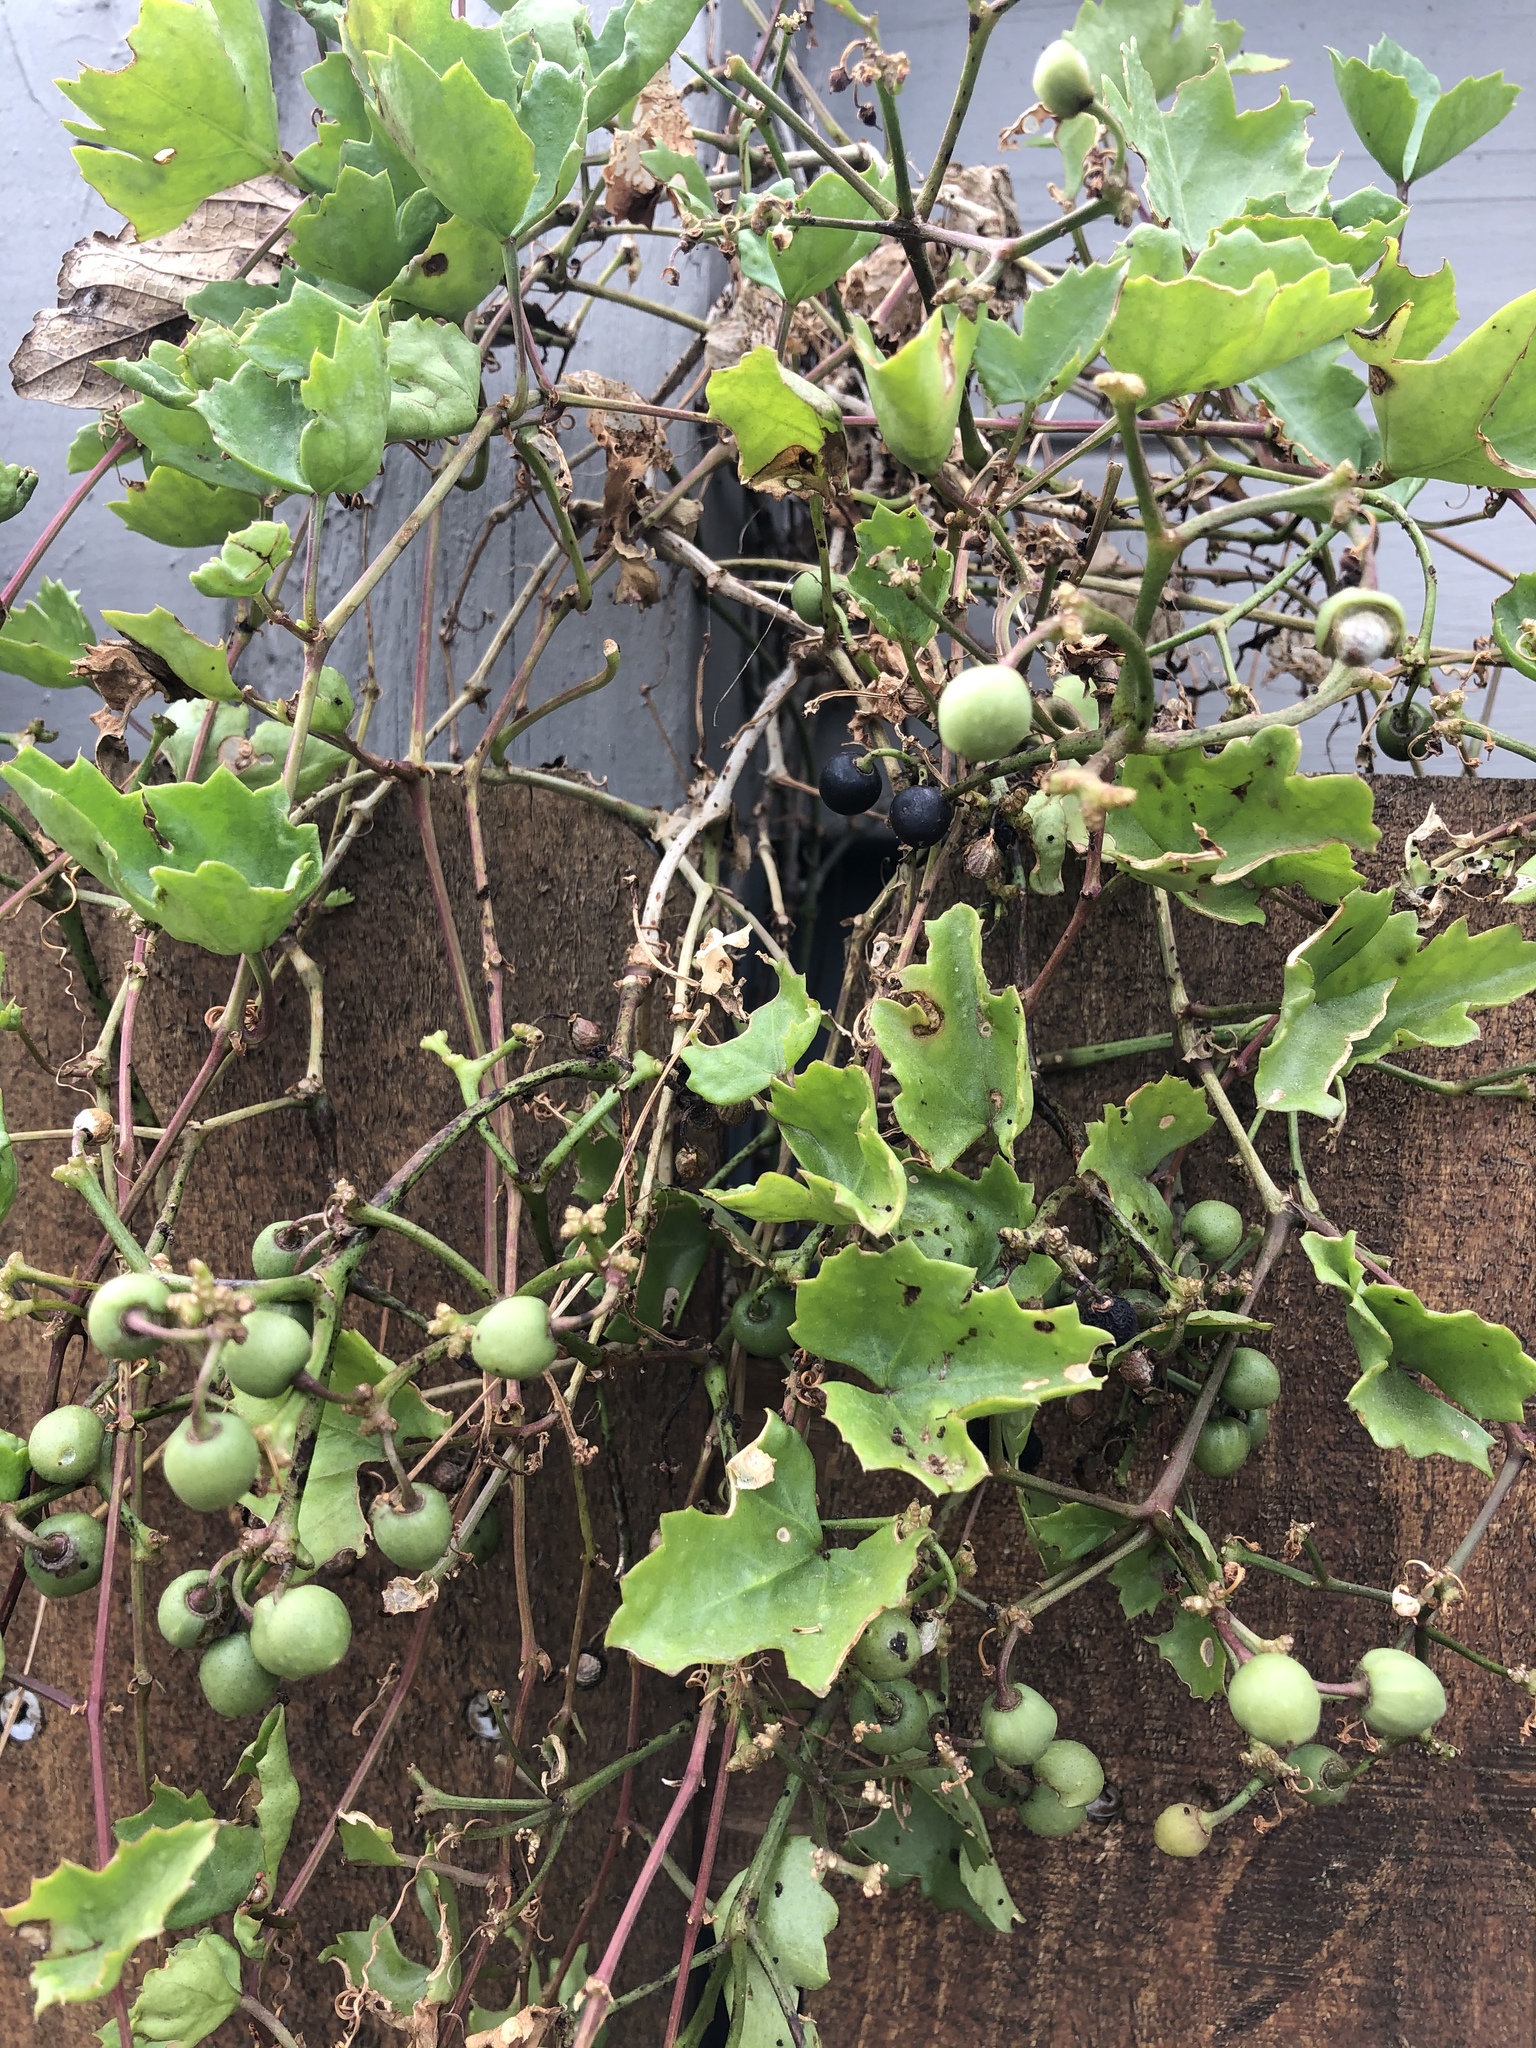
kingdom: Plantae
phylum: Tracheophyta
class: Magnoliopsida
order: Vitales
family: Vitaceae
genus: Cissus
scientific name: Cissus trifoliata
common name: Vine-sorrel
